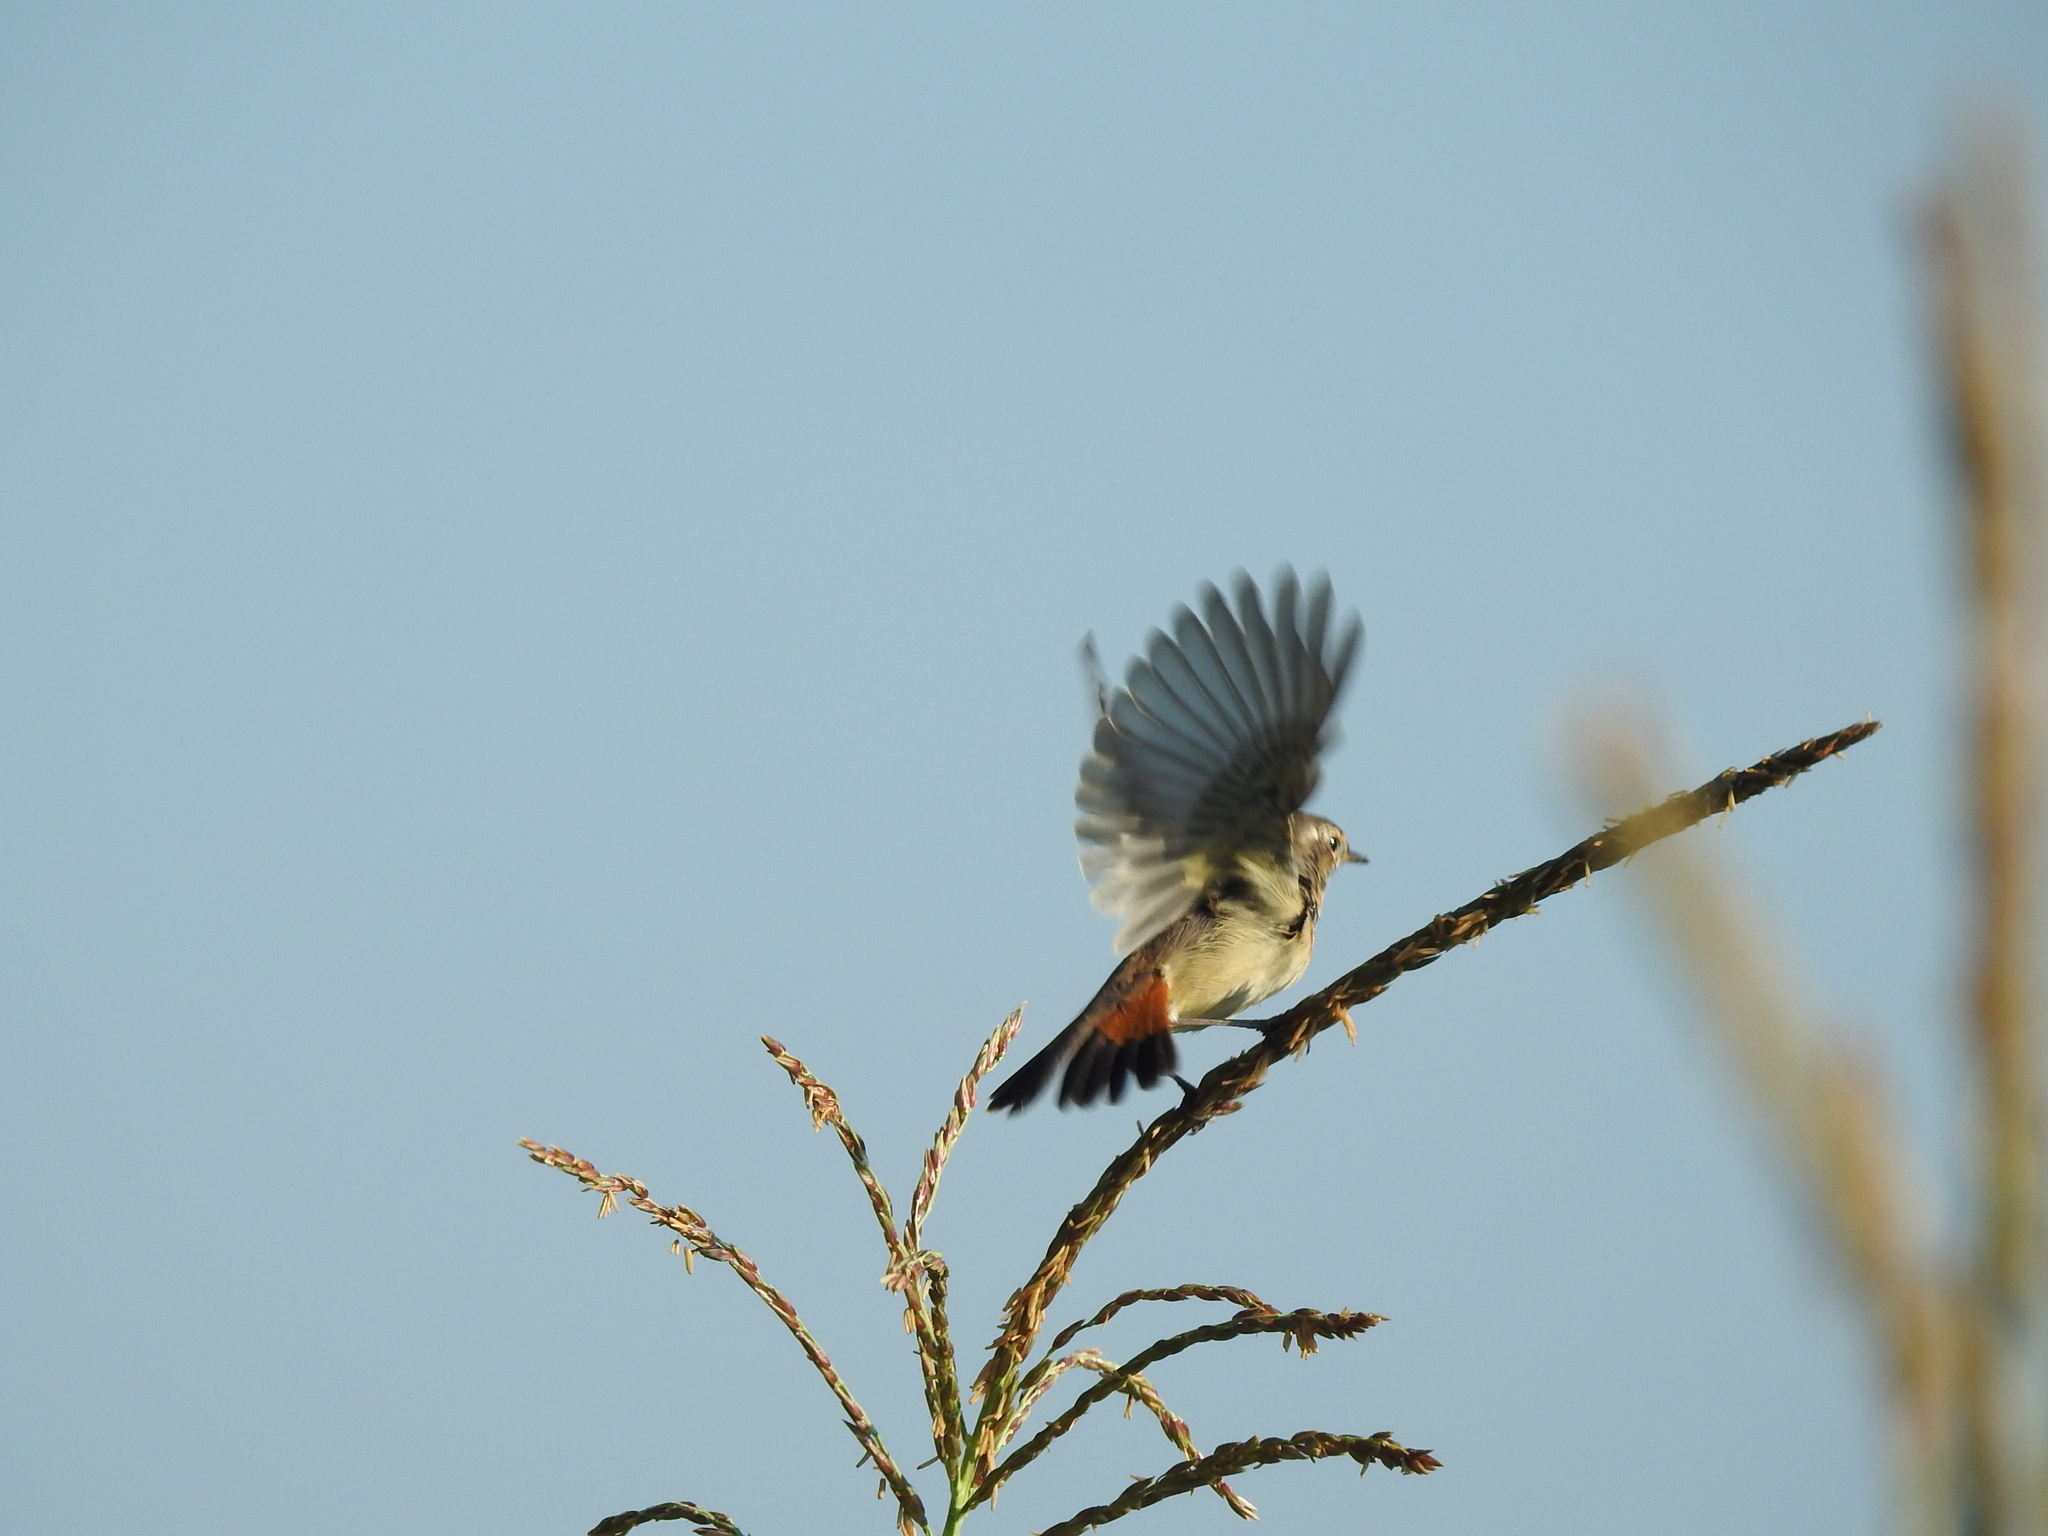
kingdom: Animalia
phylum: Chordata
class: Aves
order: Passeriformes
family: Muscicapidae
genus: Luscinia
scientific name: Luscinia svecica
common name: Bluethroat
